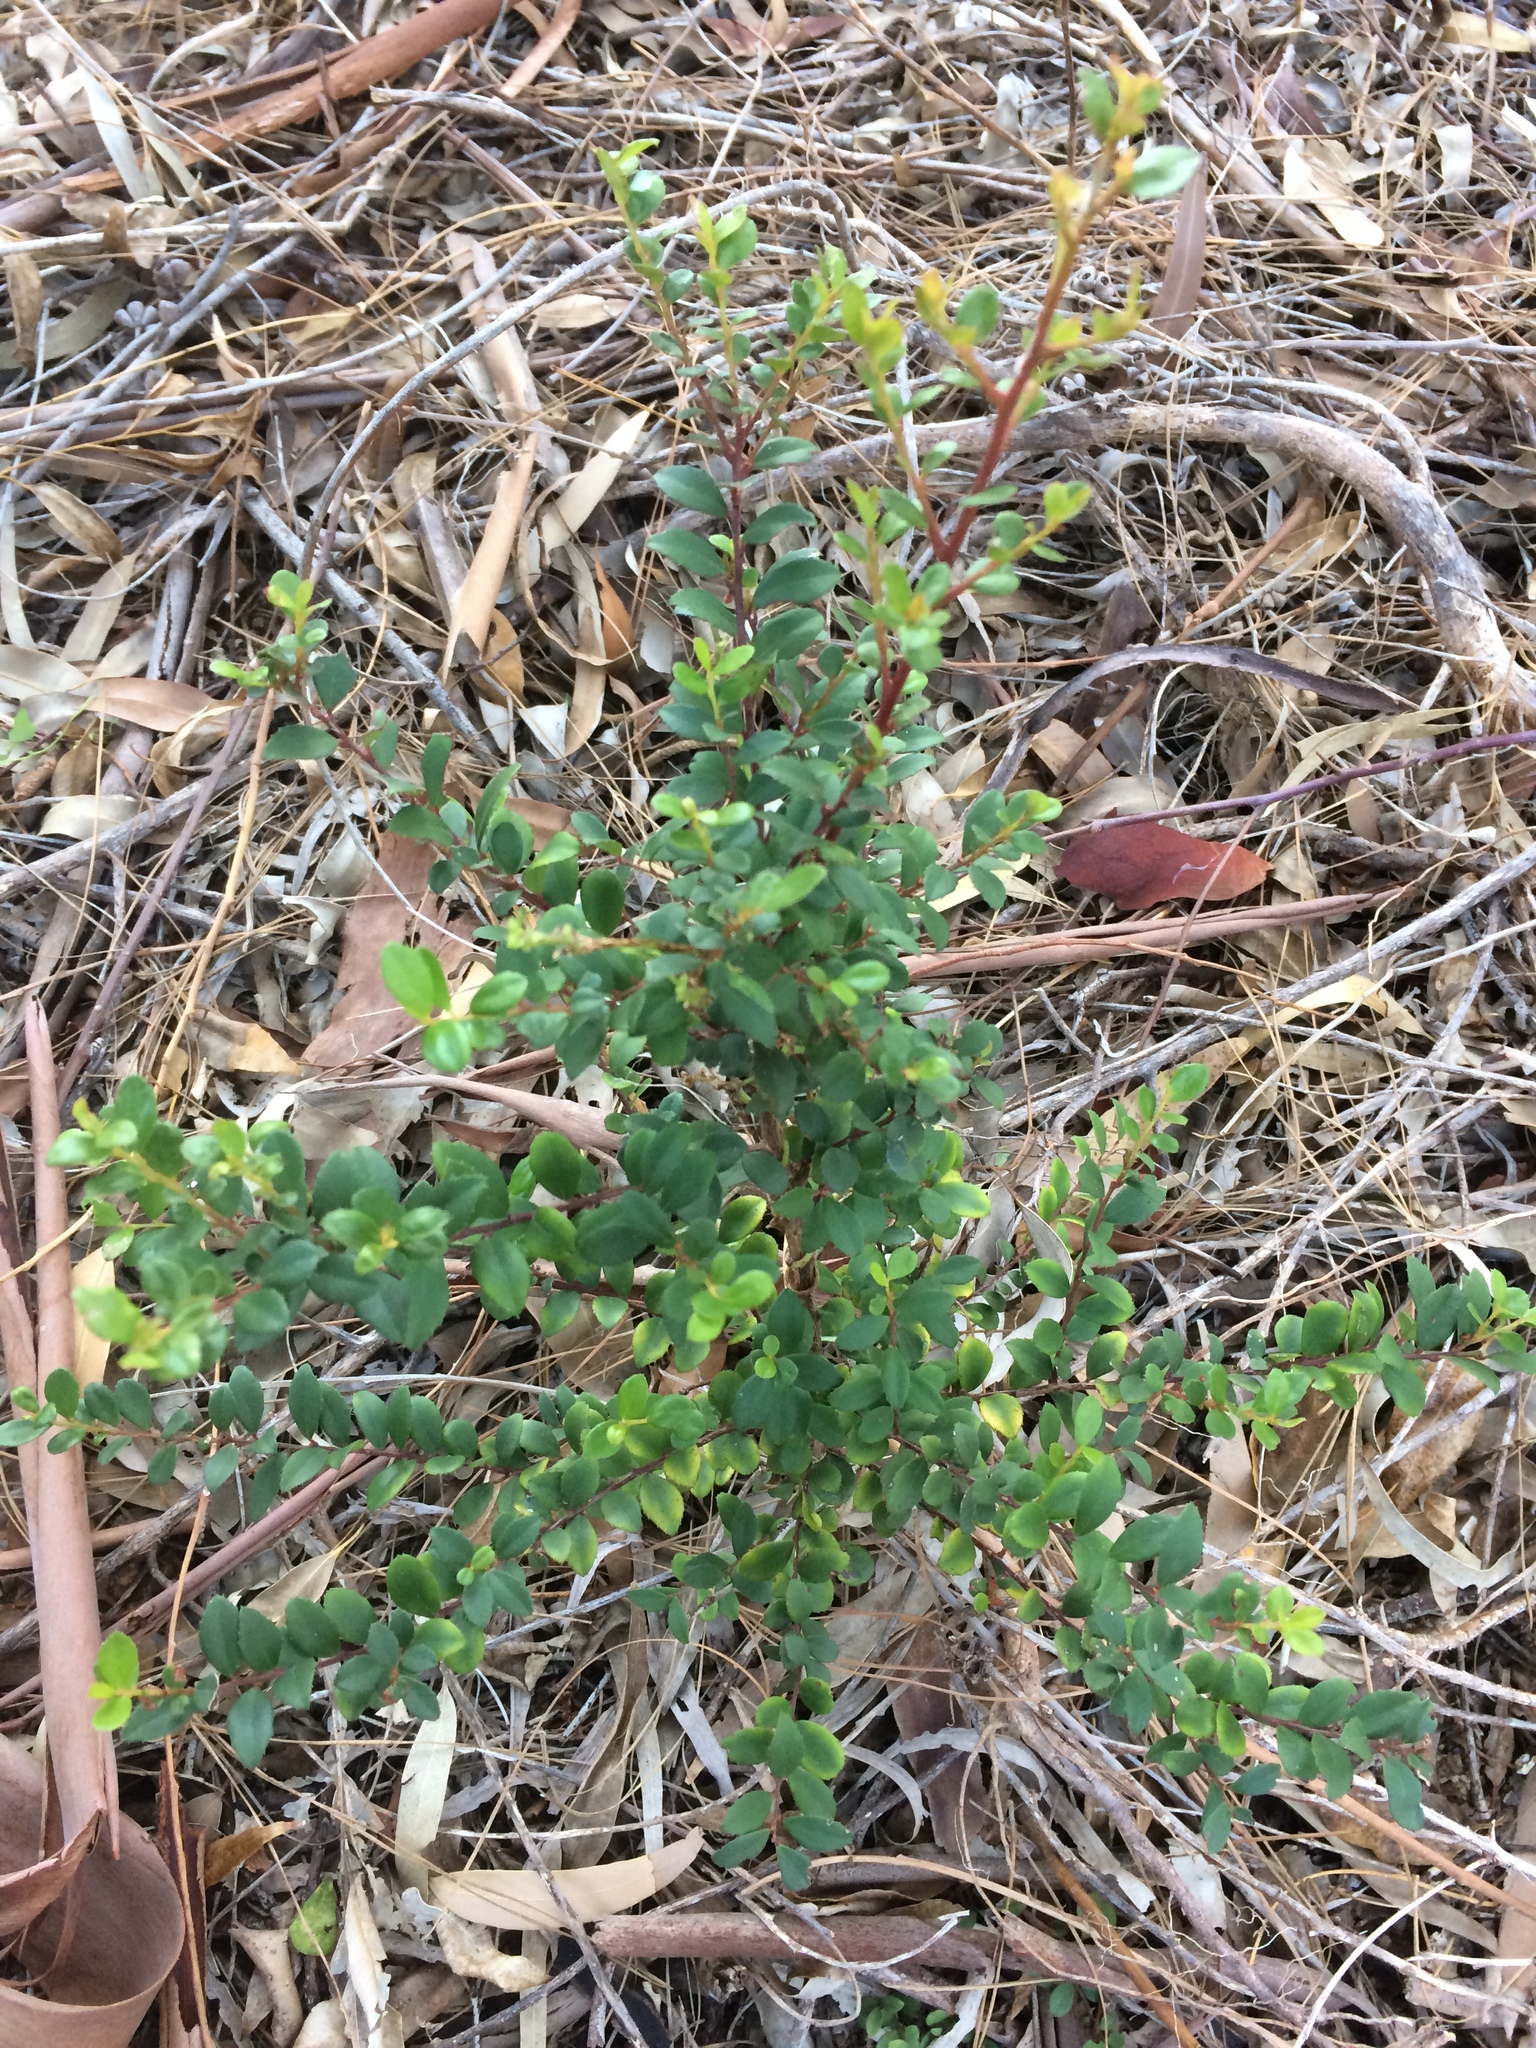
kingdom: Plantae
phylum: Tracheophyta
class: Magnoliopsida
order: Ericales
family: Primulaceae
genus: Myrsine
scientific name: Myrsine africana
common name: African-boxwood
